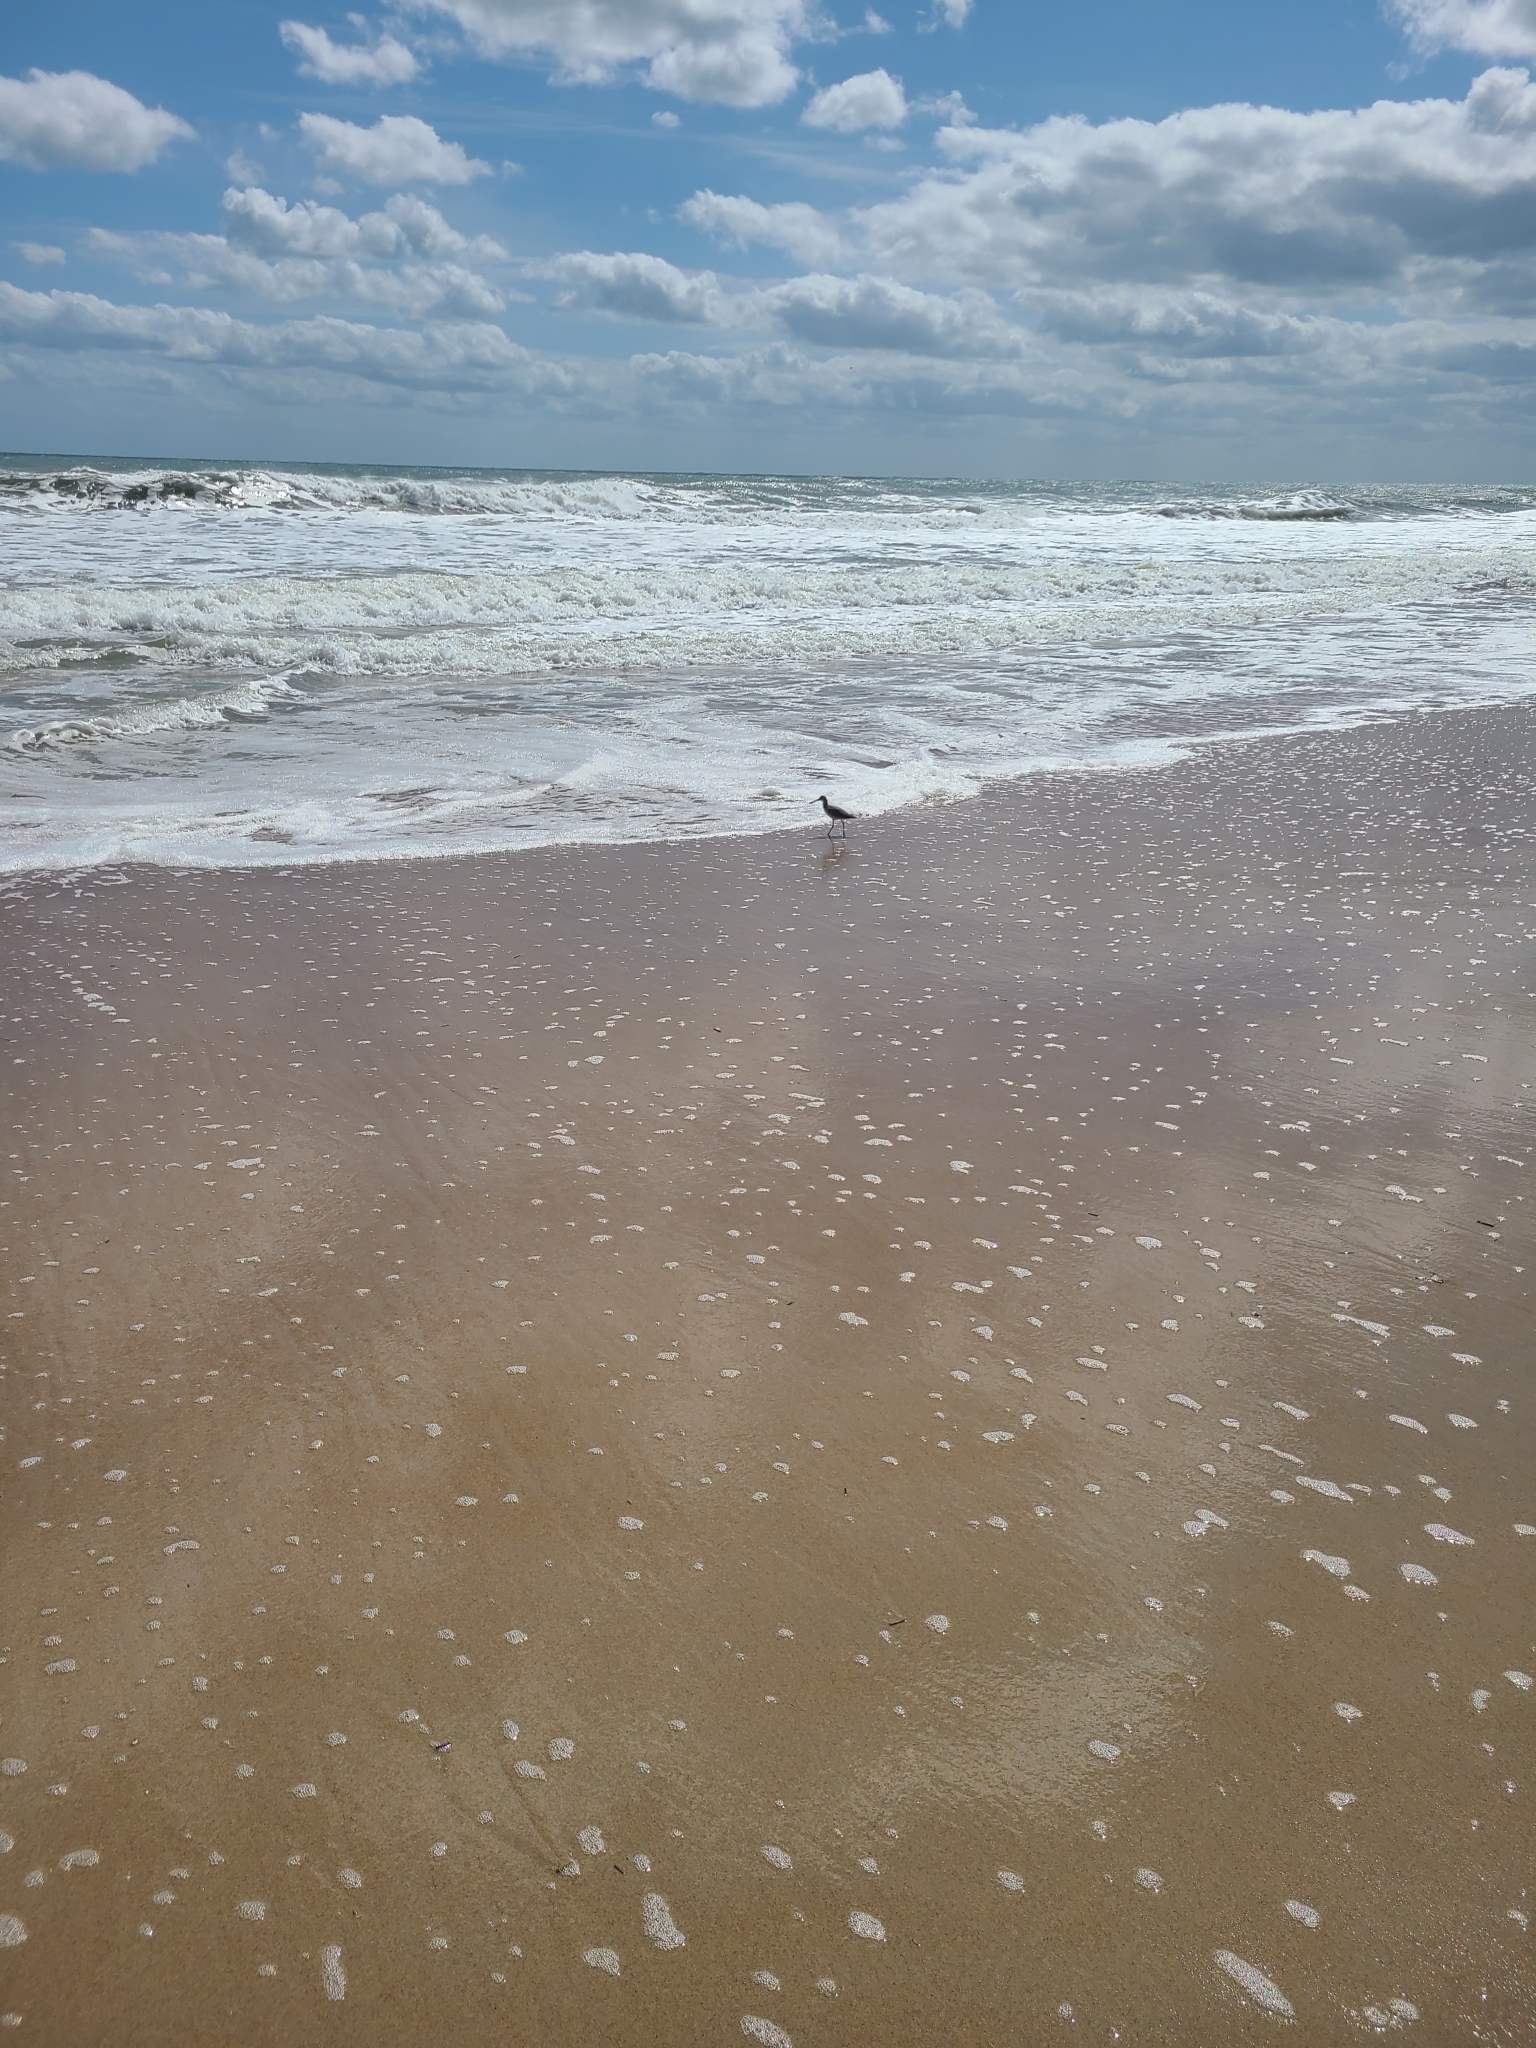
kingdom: Animalia
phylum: Chordata
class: Aves
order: Charadriiformes
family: Scolopacidae
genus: Tringa
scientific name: Tringa semipalmata
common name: Willet
